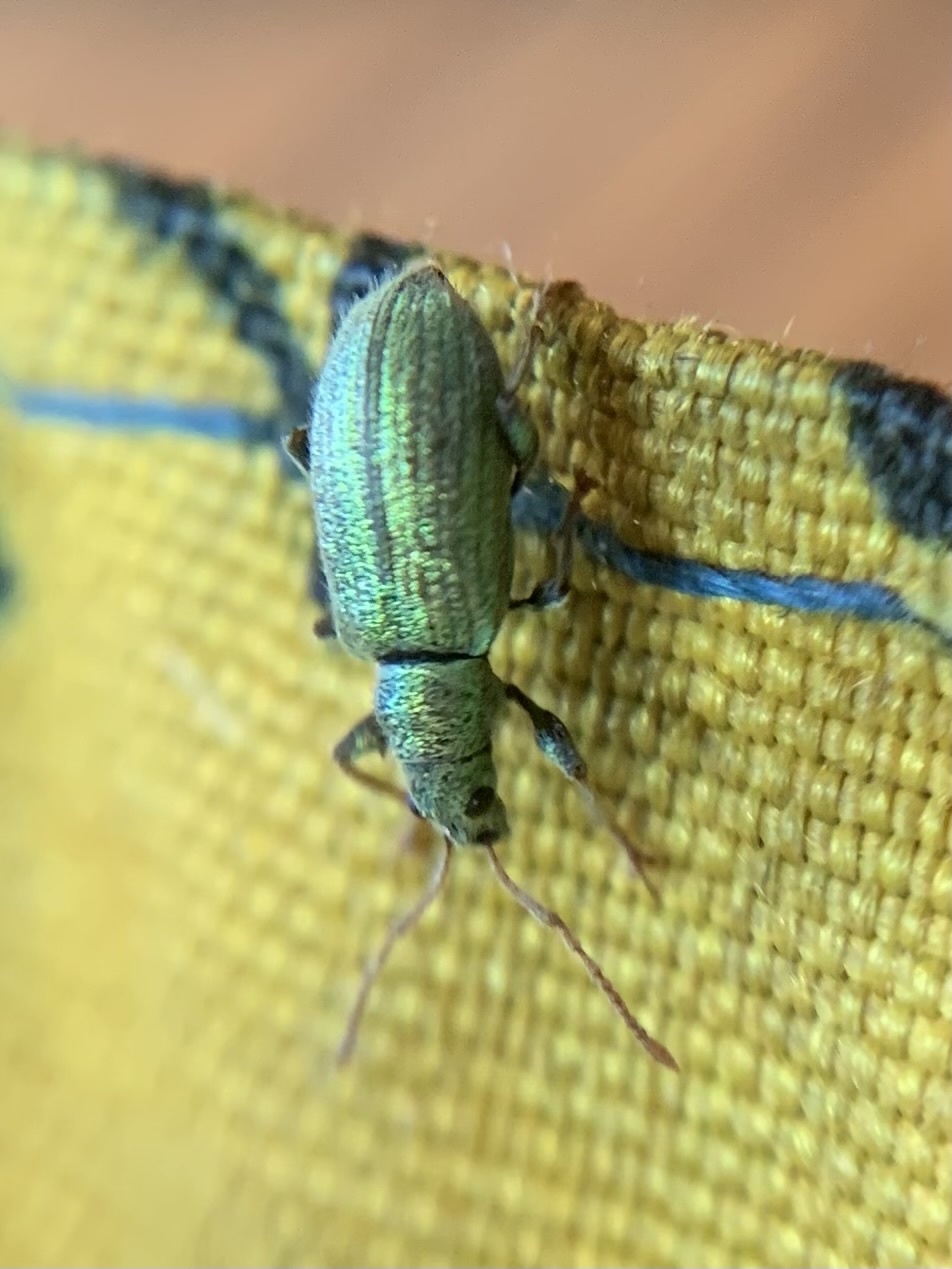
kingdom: Animalia
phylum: Arthropoda
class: Insecta
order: Coleoptera
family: Curculionidae
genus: Phyllobius
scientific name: Phyllobius argentatus
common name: Silver-green leaf weevil
